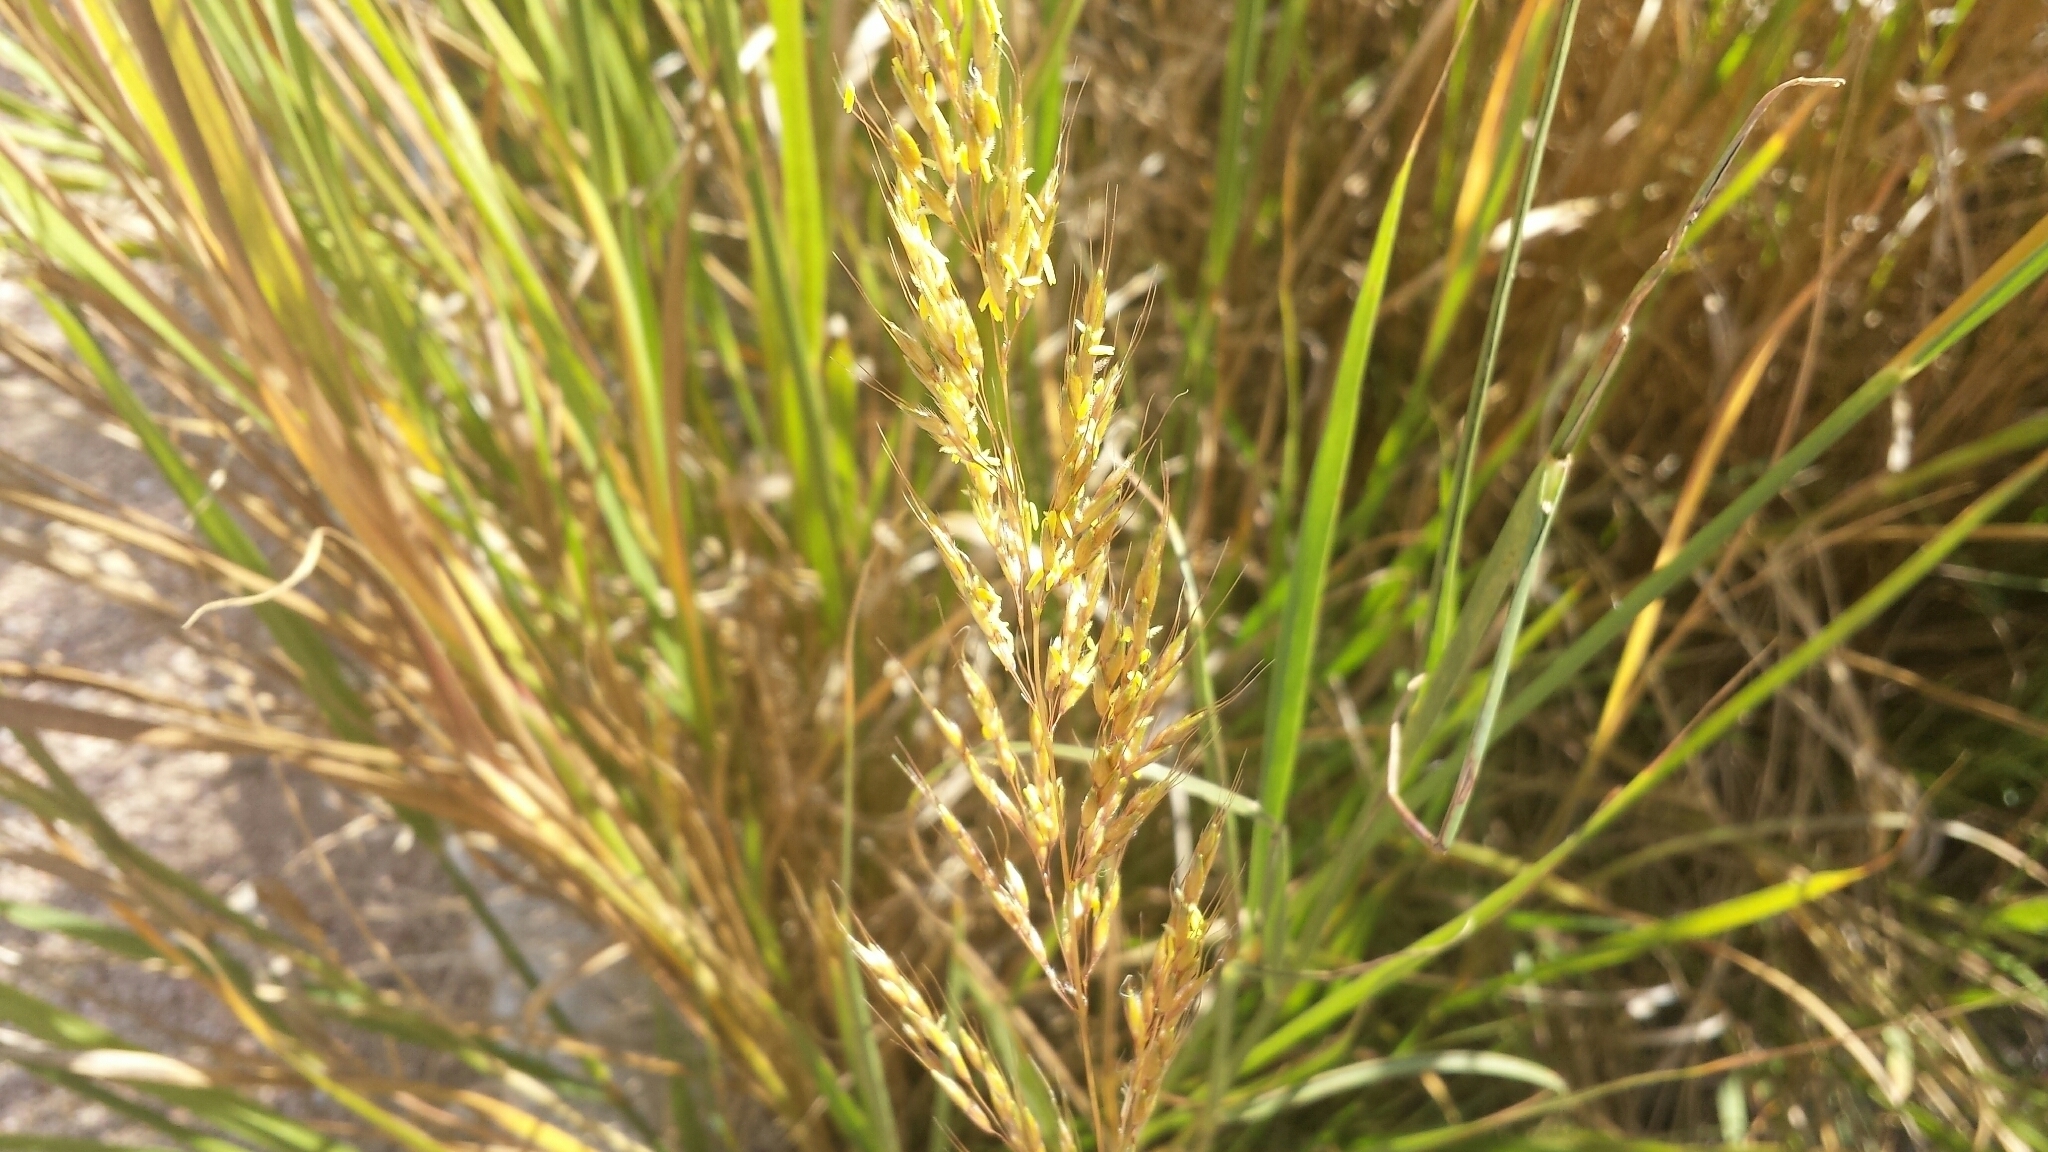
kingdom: Plantae
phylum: Tracheophyta
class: Liliopsida
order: Poales
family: Poaceae
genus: Sorghastrum
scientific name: Sorghastrum nutans
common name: Indian grass
